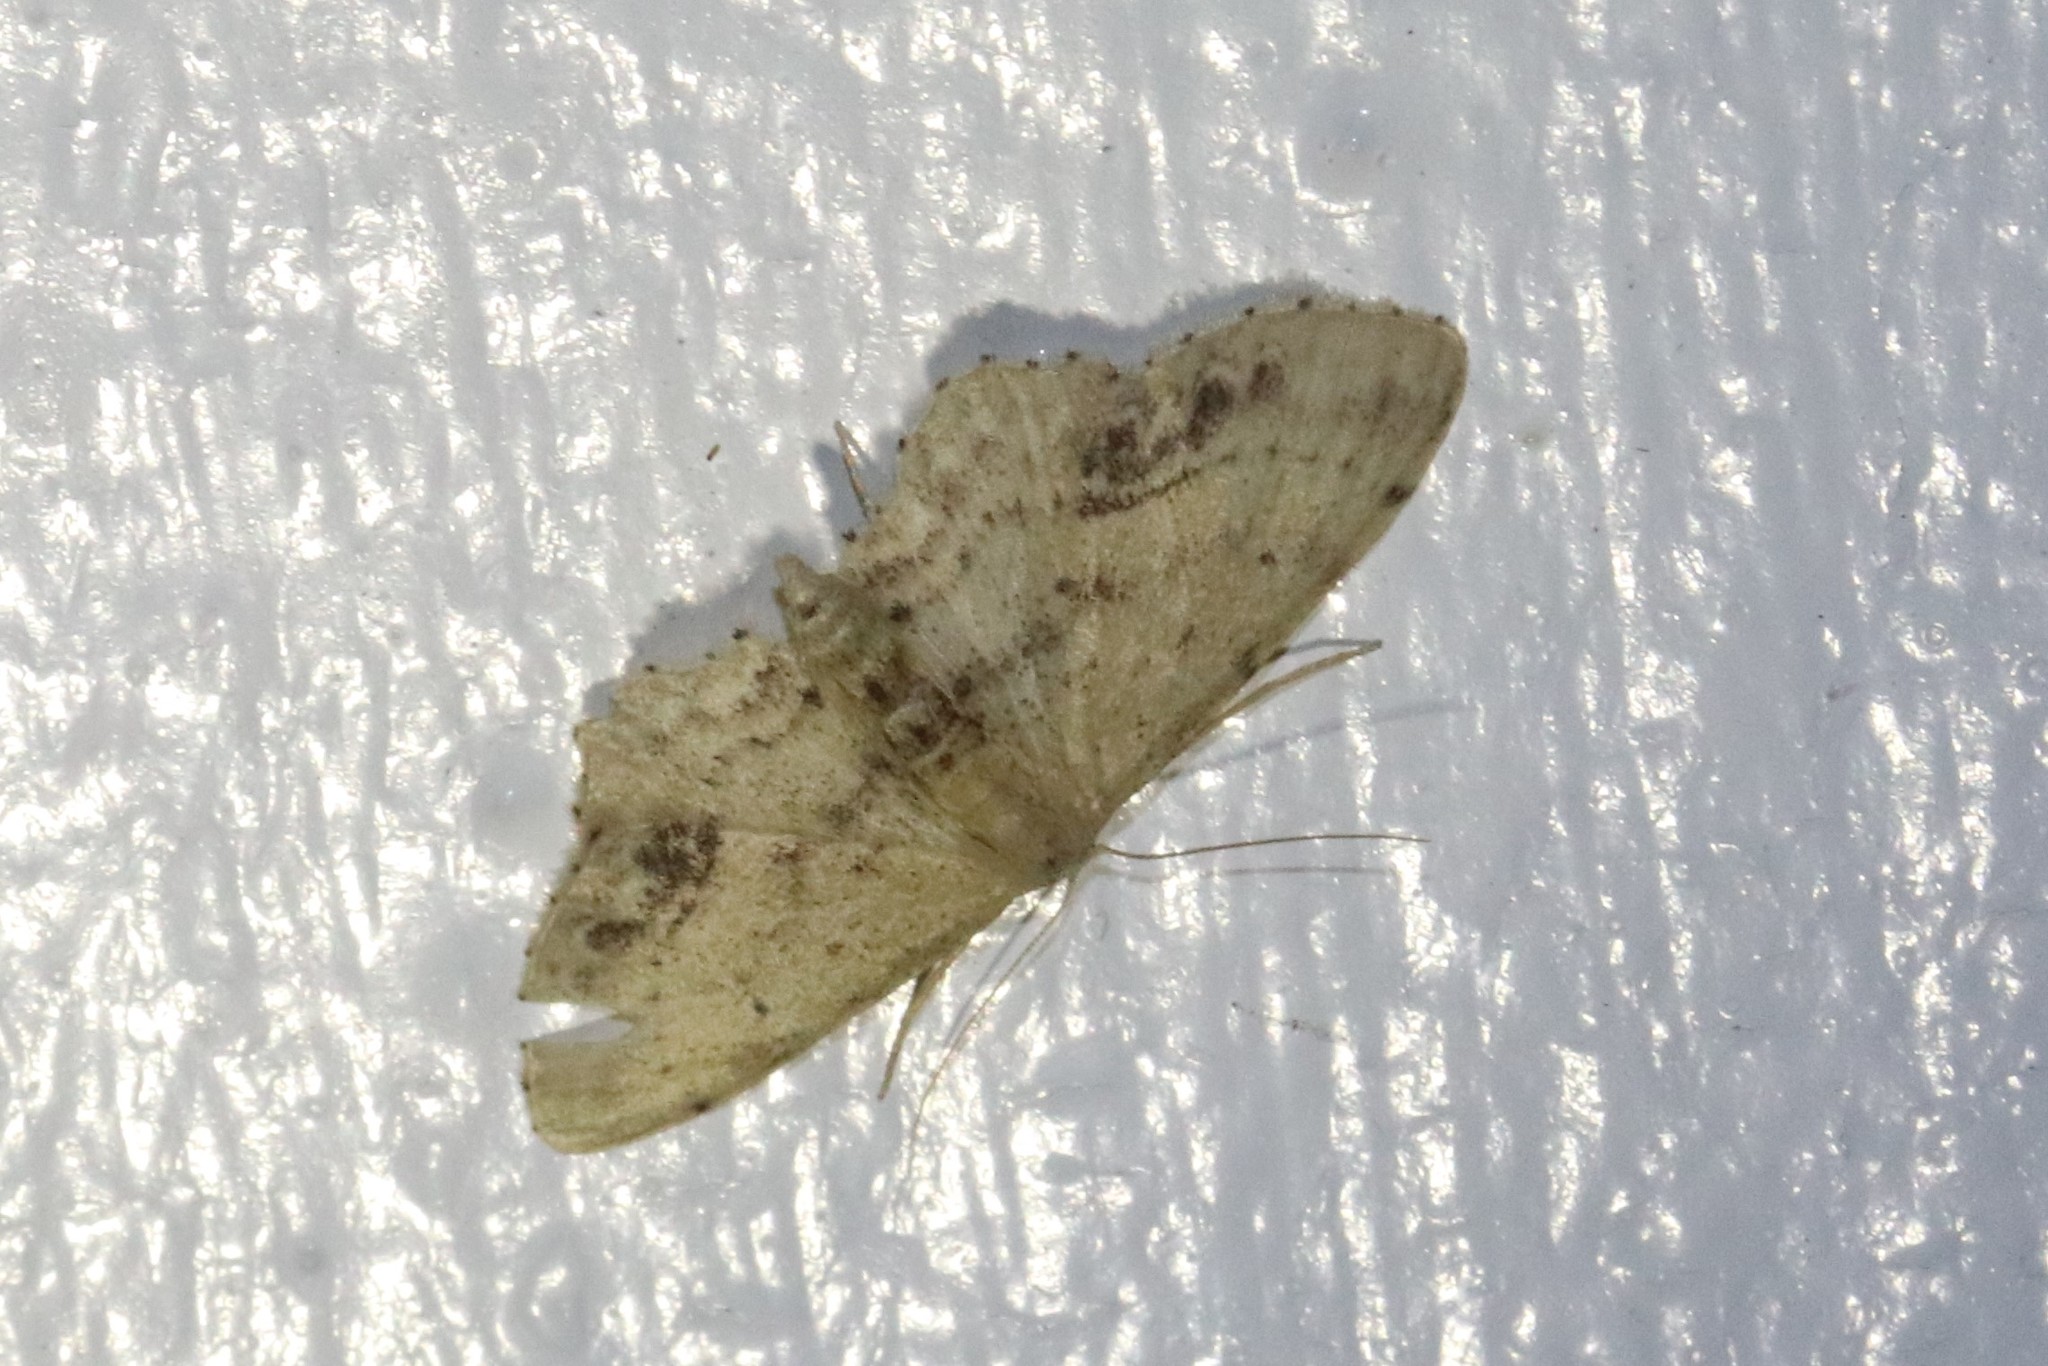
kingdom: Animalia
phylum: Arthropoda
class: Insecta
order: Lepidoptera
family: Geometridae
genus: Idaea
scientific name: Idaea dimidiata
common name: Single-dotted wave
